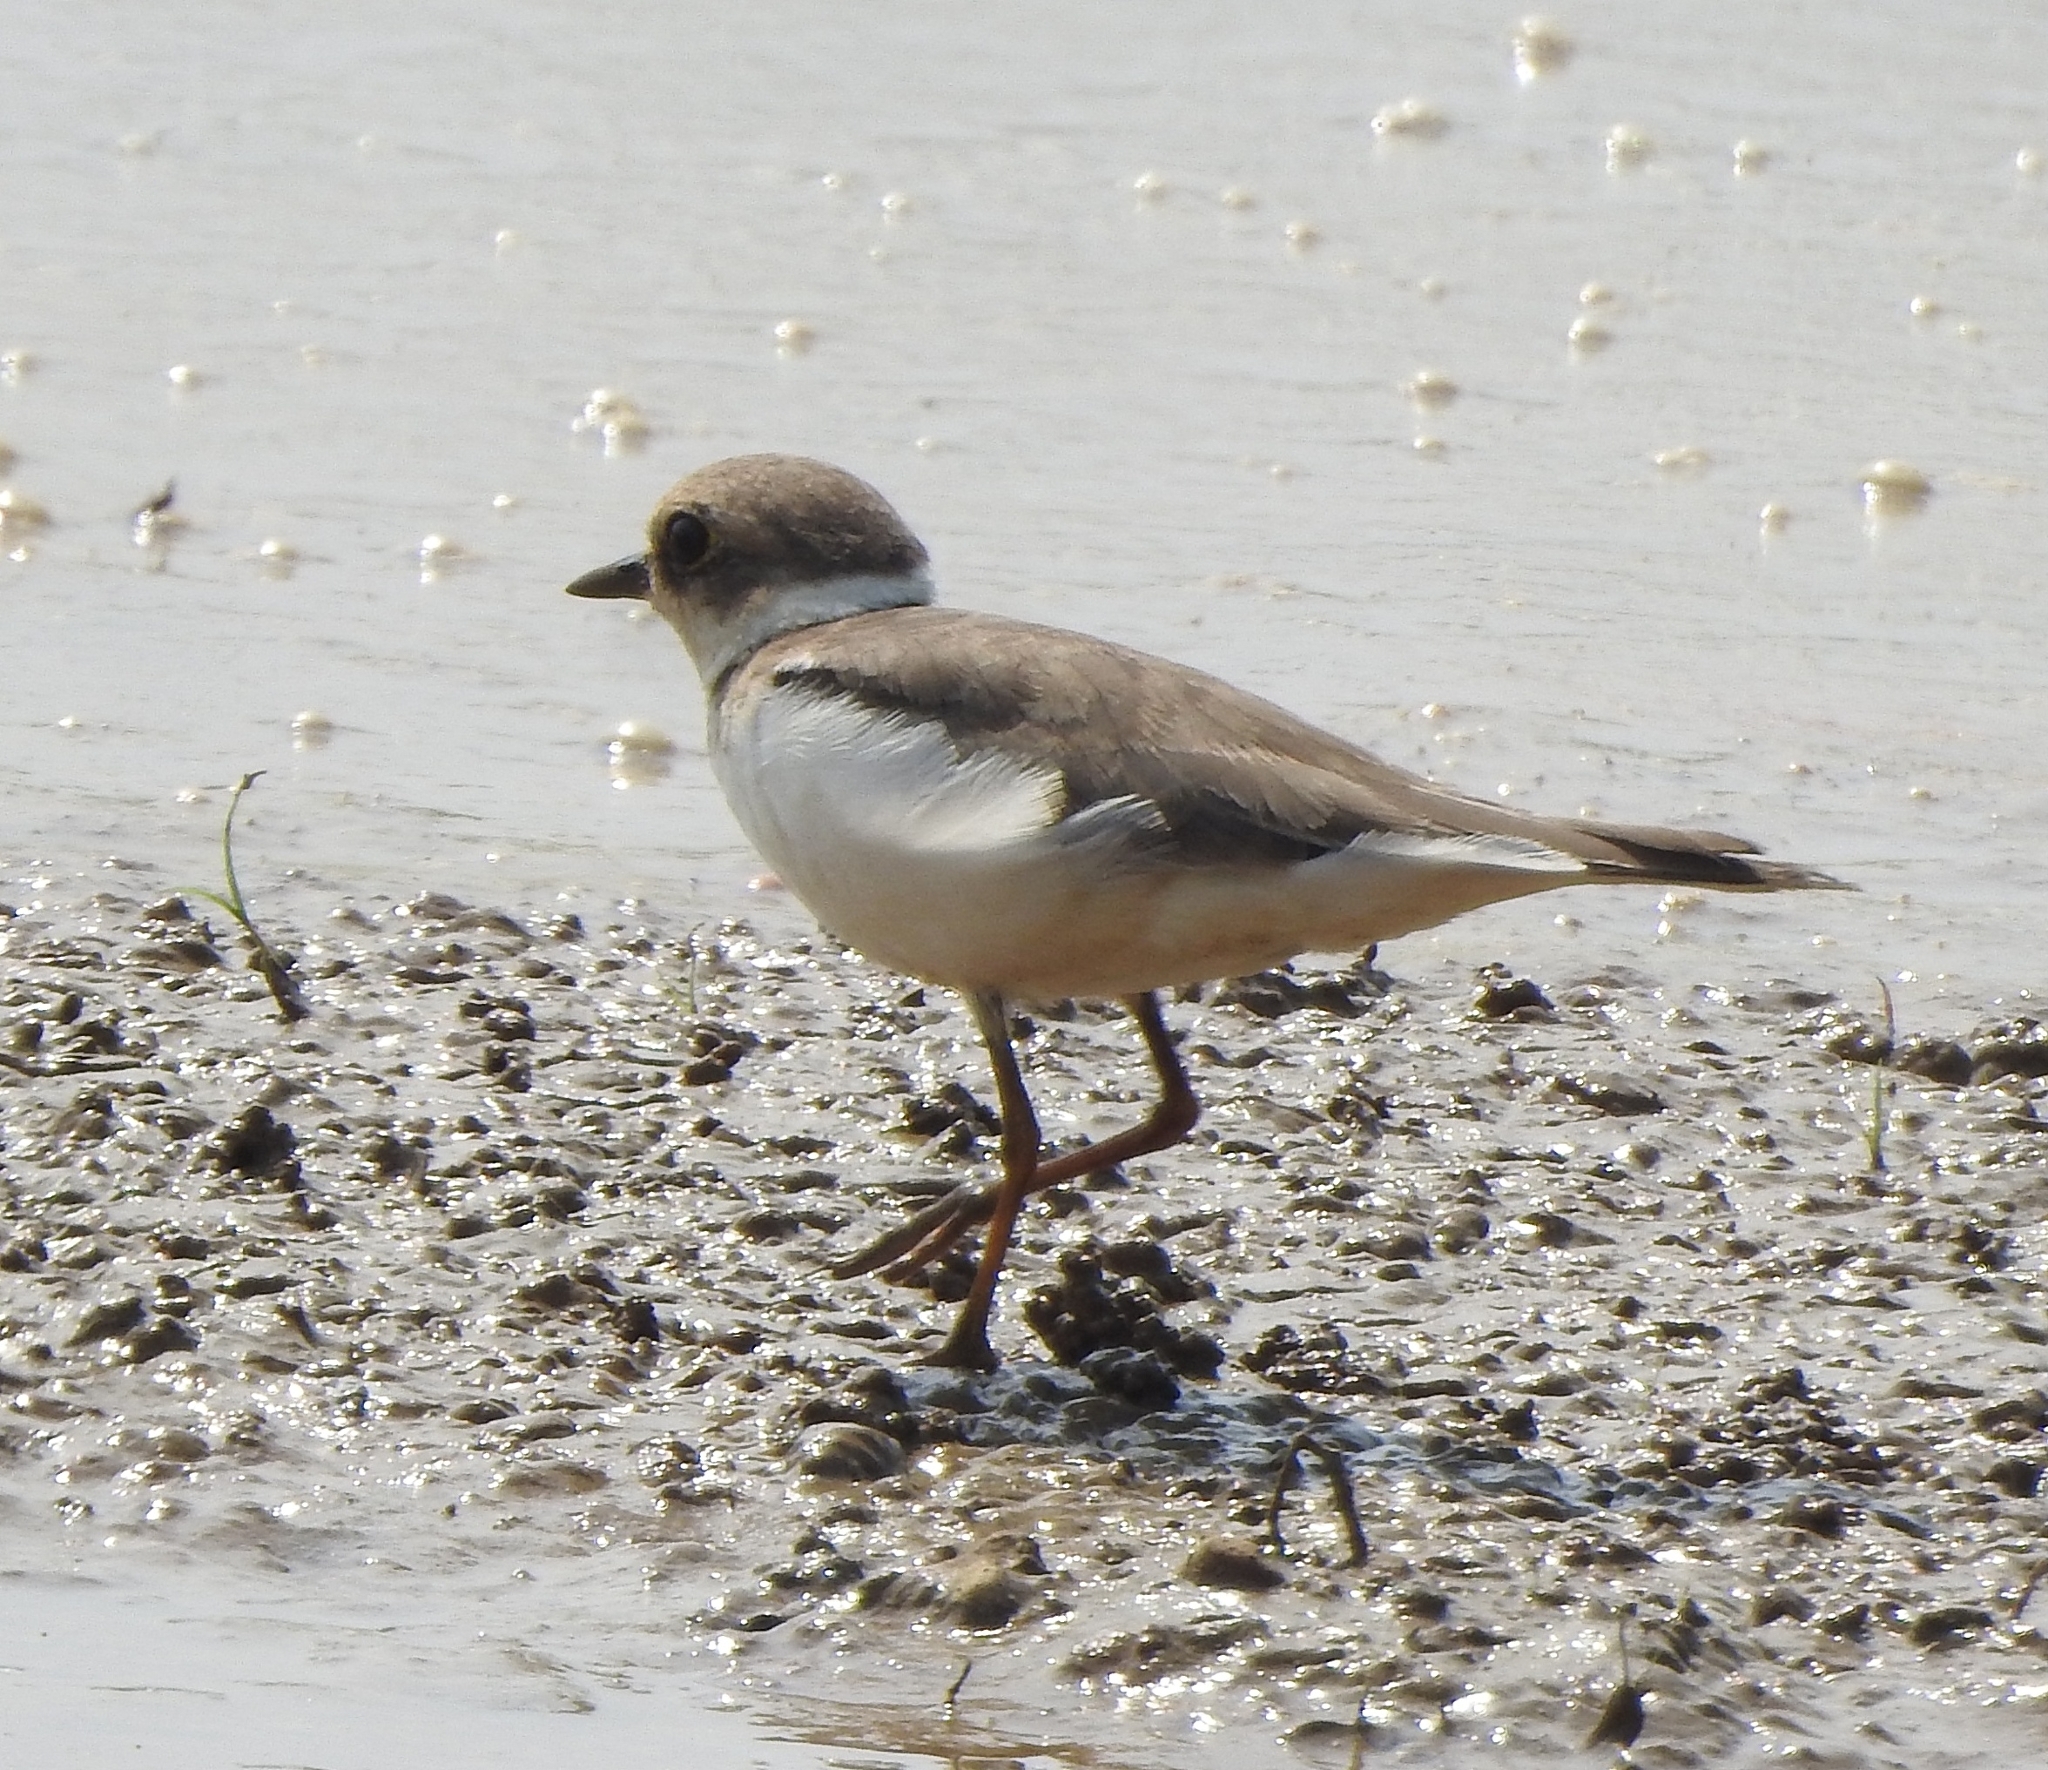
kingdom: Animalia
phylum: Chordata
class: Aves
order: Charadriiformes
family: Charadriidae
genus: Charadrius
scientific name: Charadrius dubius
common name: Little ringed plover
